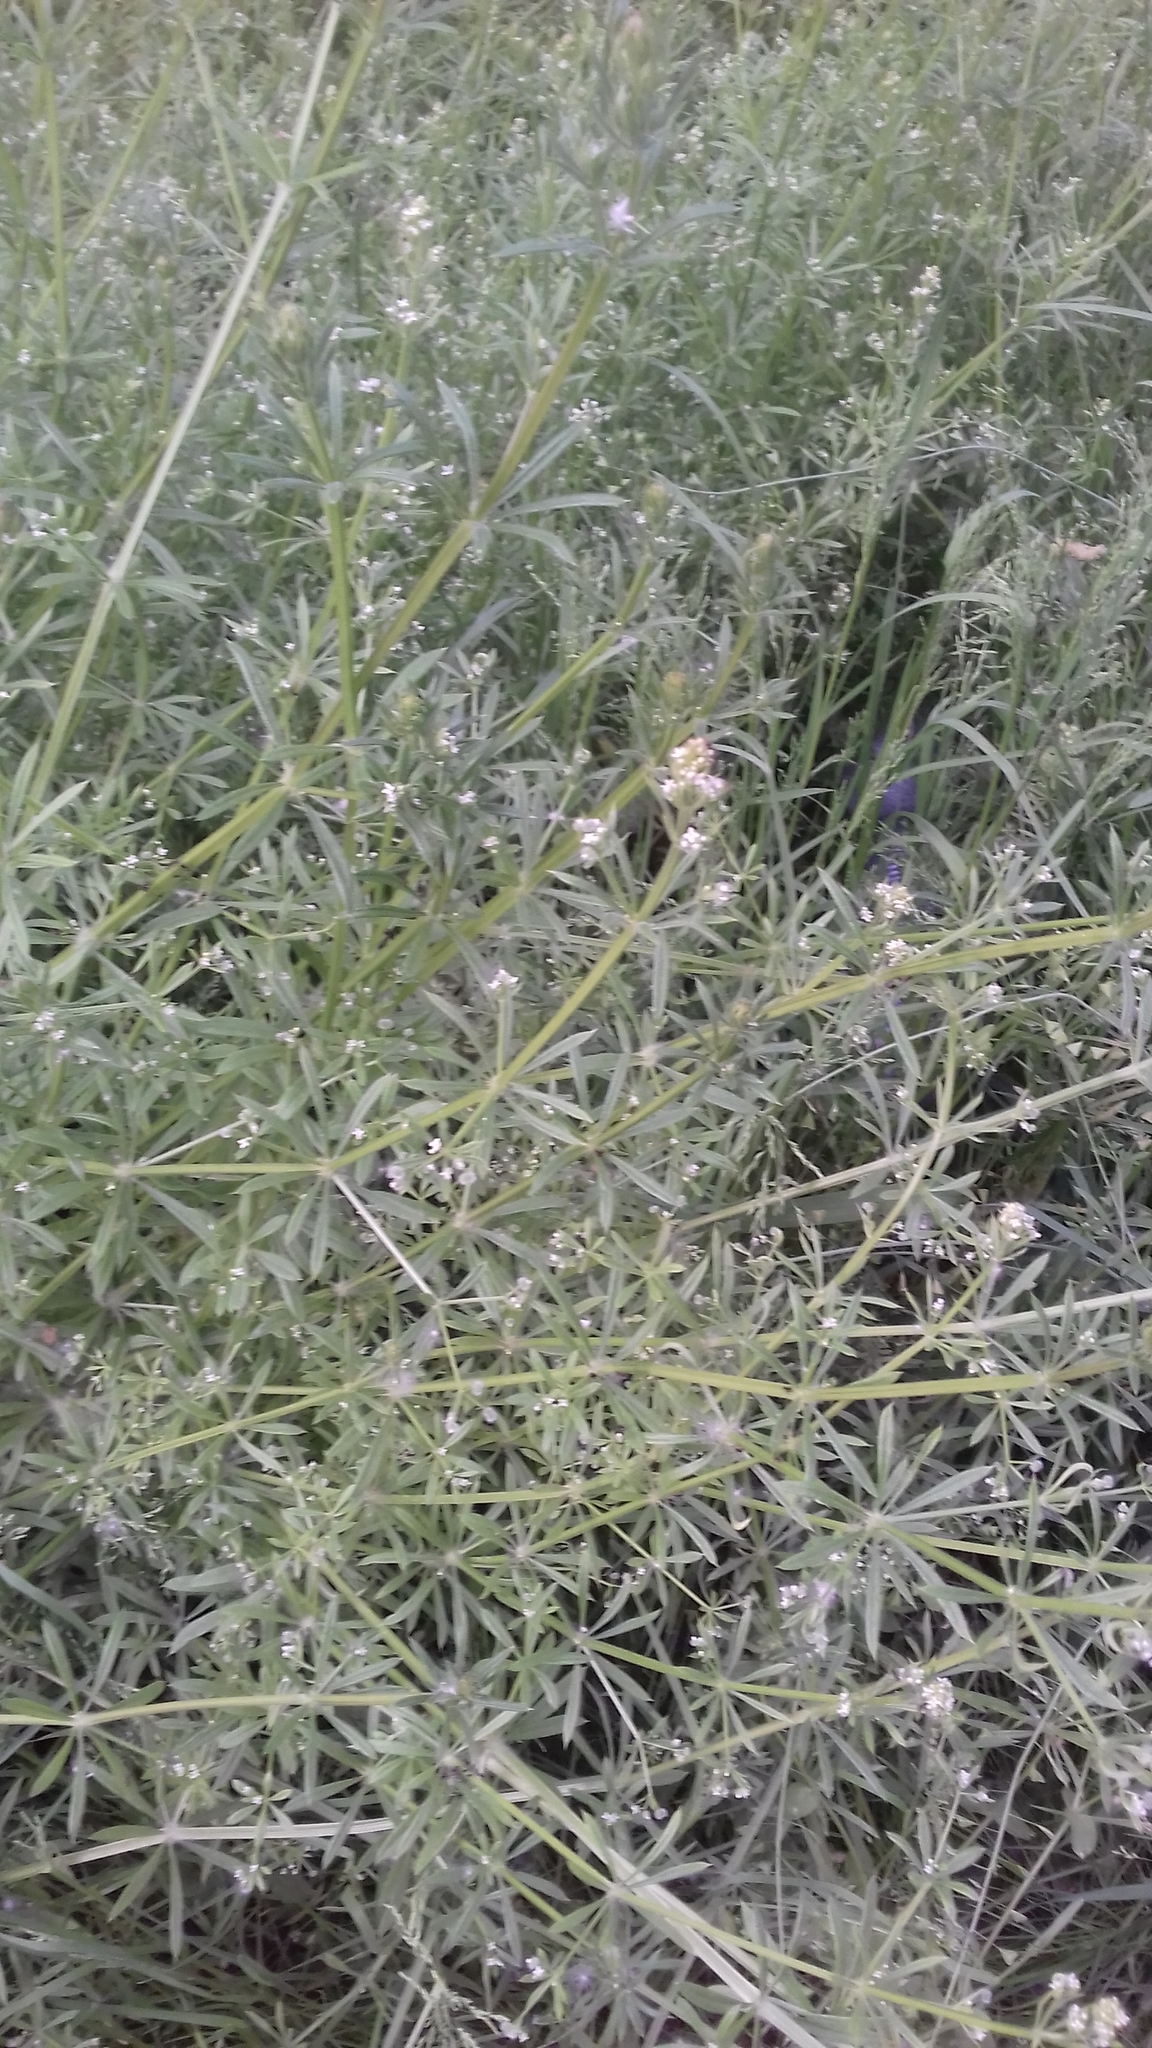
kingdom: Plantae
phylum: Tracheophyta
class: Magnoliopsida
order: Gentianales
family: Rubiaceae
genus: Galium
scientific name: Galium aparine
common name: Cleavers
